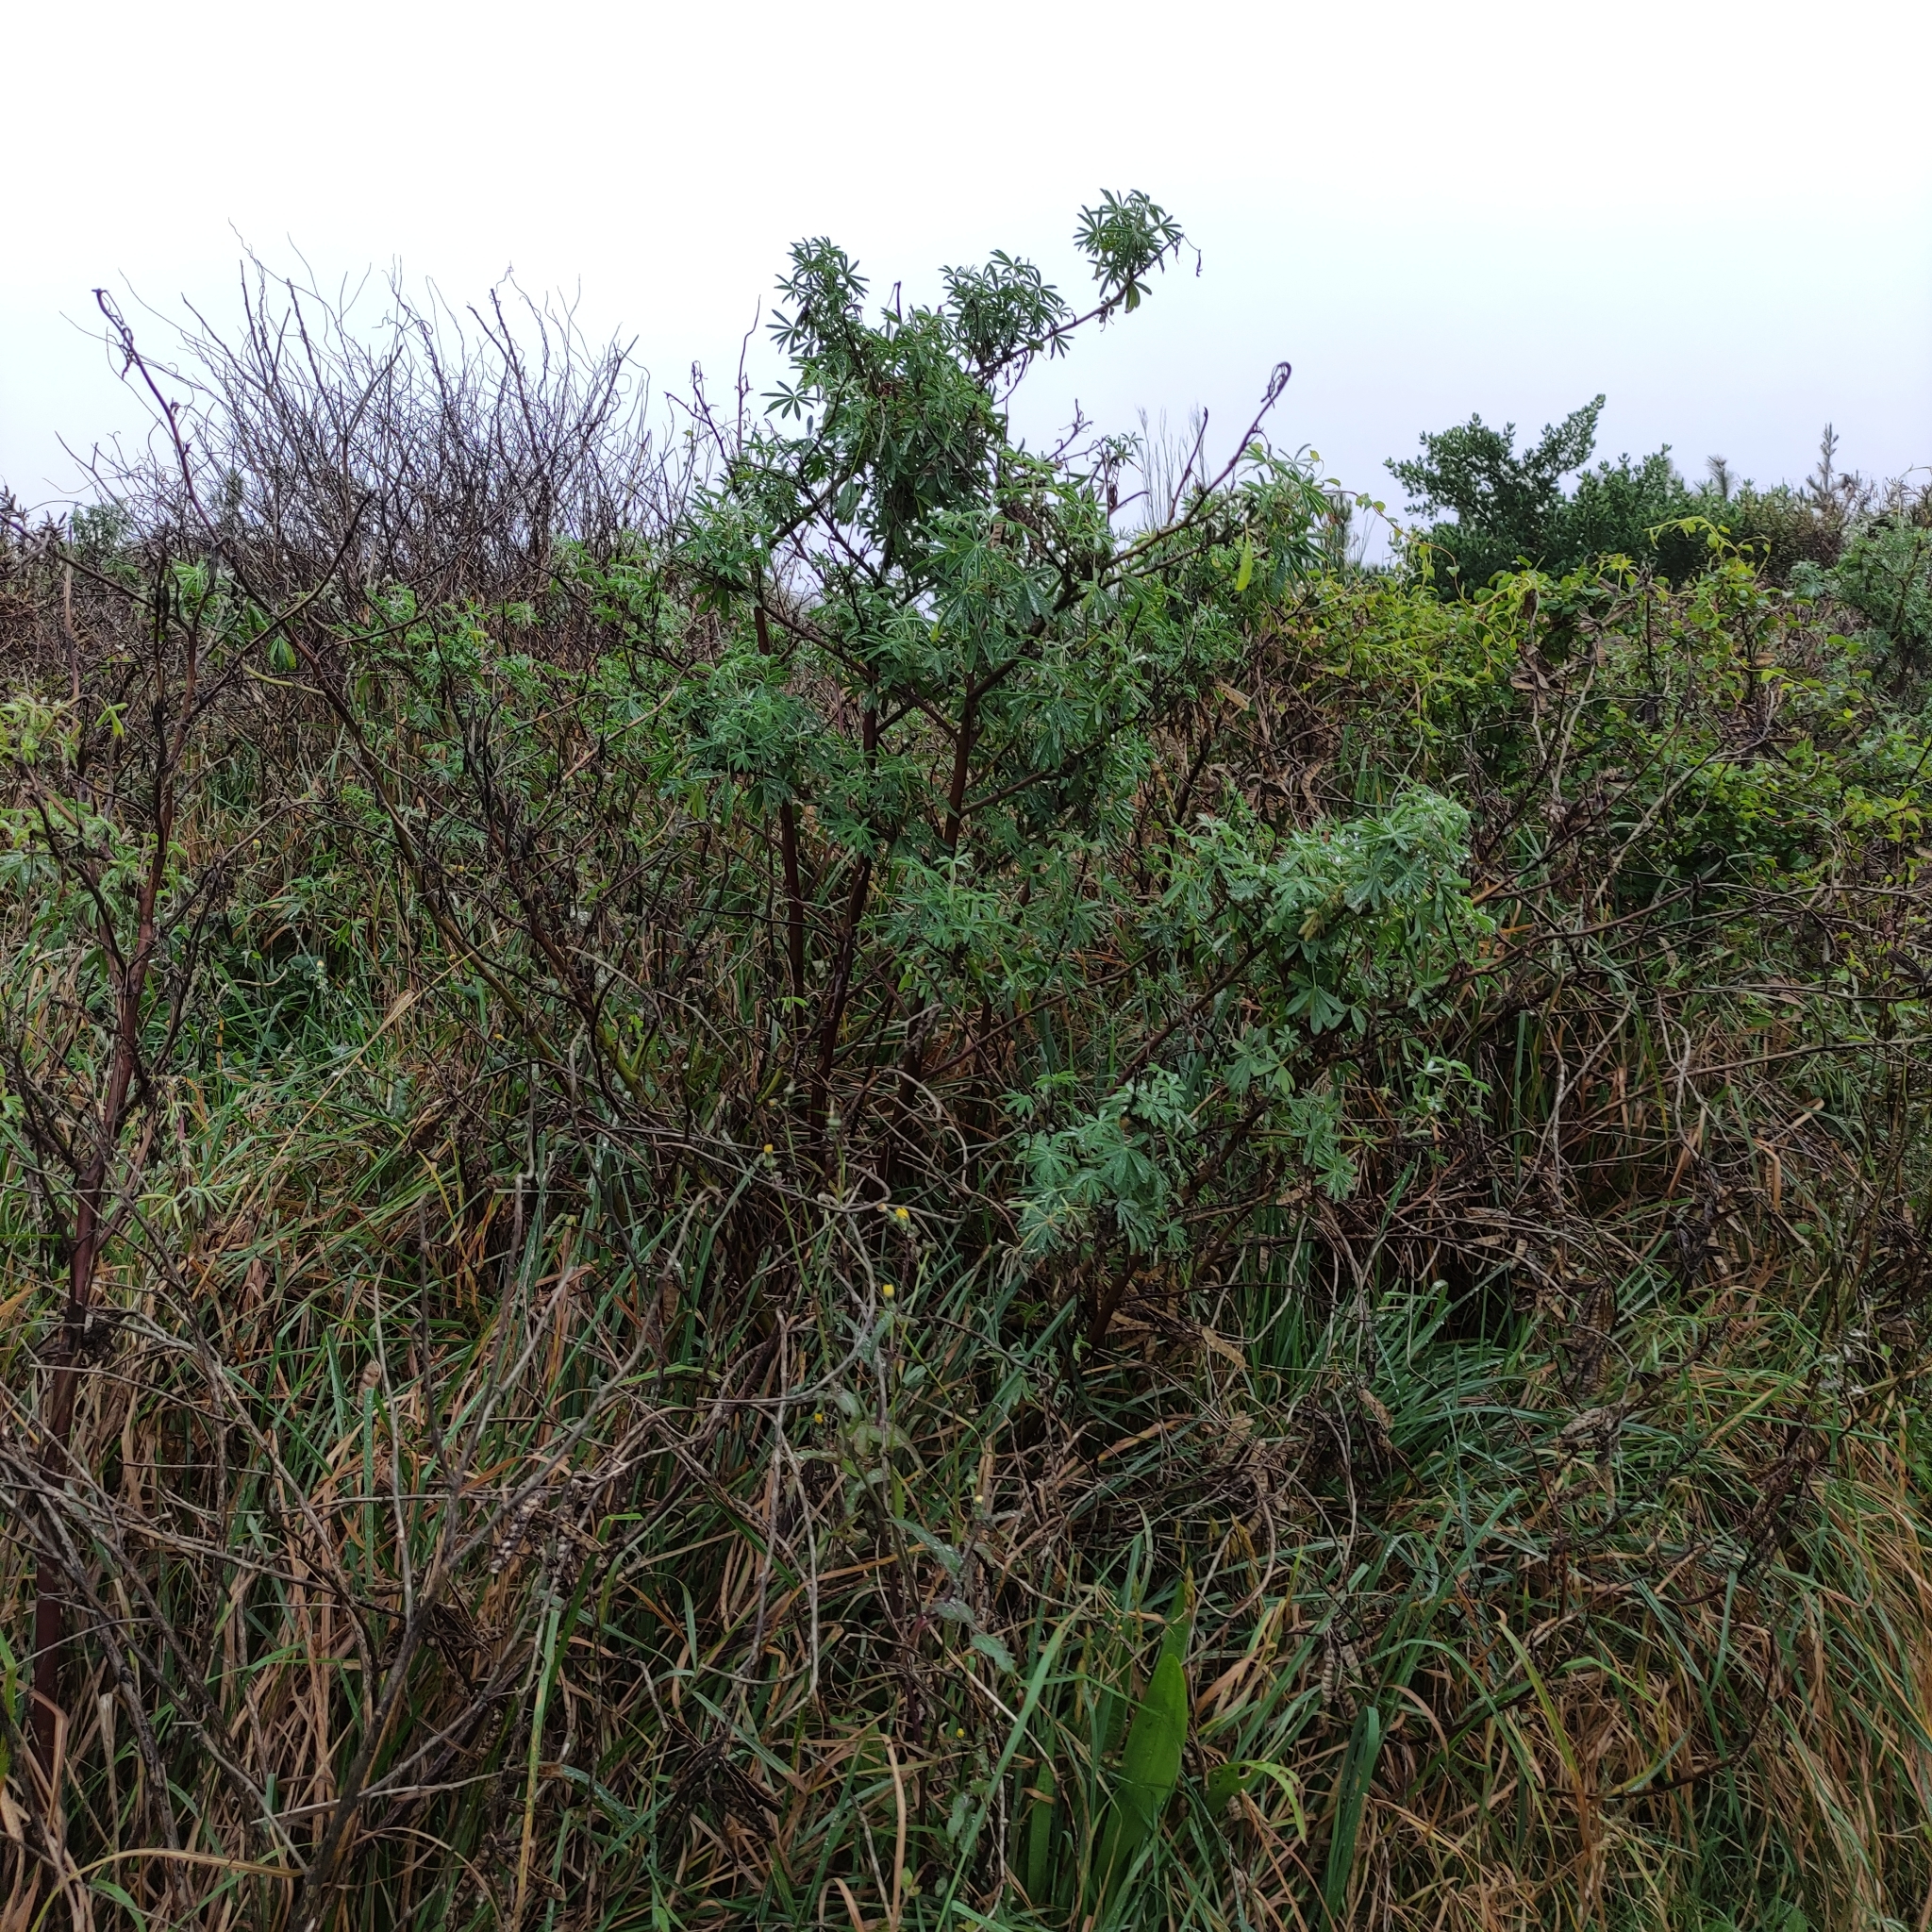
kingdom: Plantae
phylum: Tracheophyta
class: Magnoliopsida
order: Fabales
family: Fabaceae
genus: Lupinus
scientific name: Lupinus arboreus
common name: Yellow bush lupine
